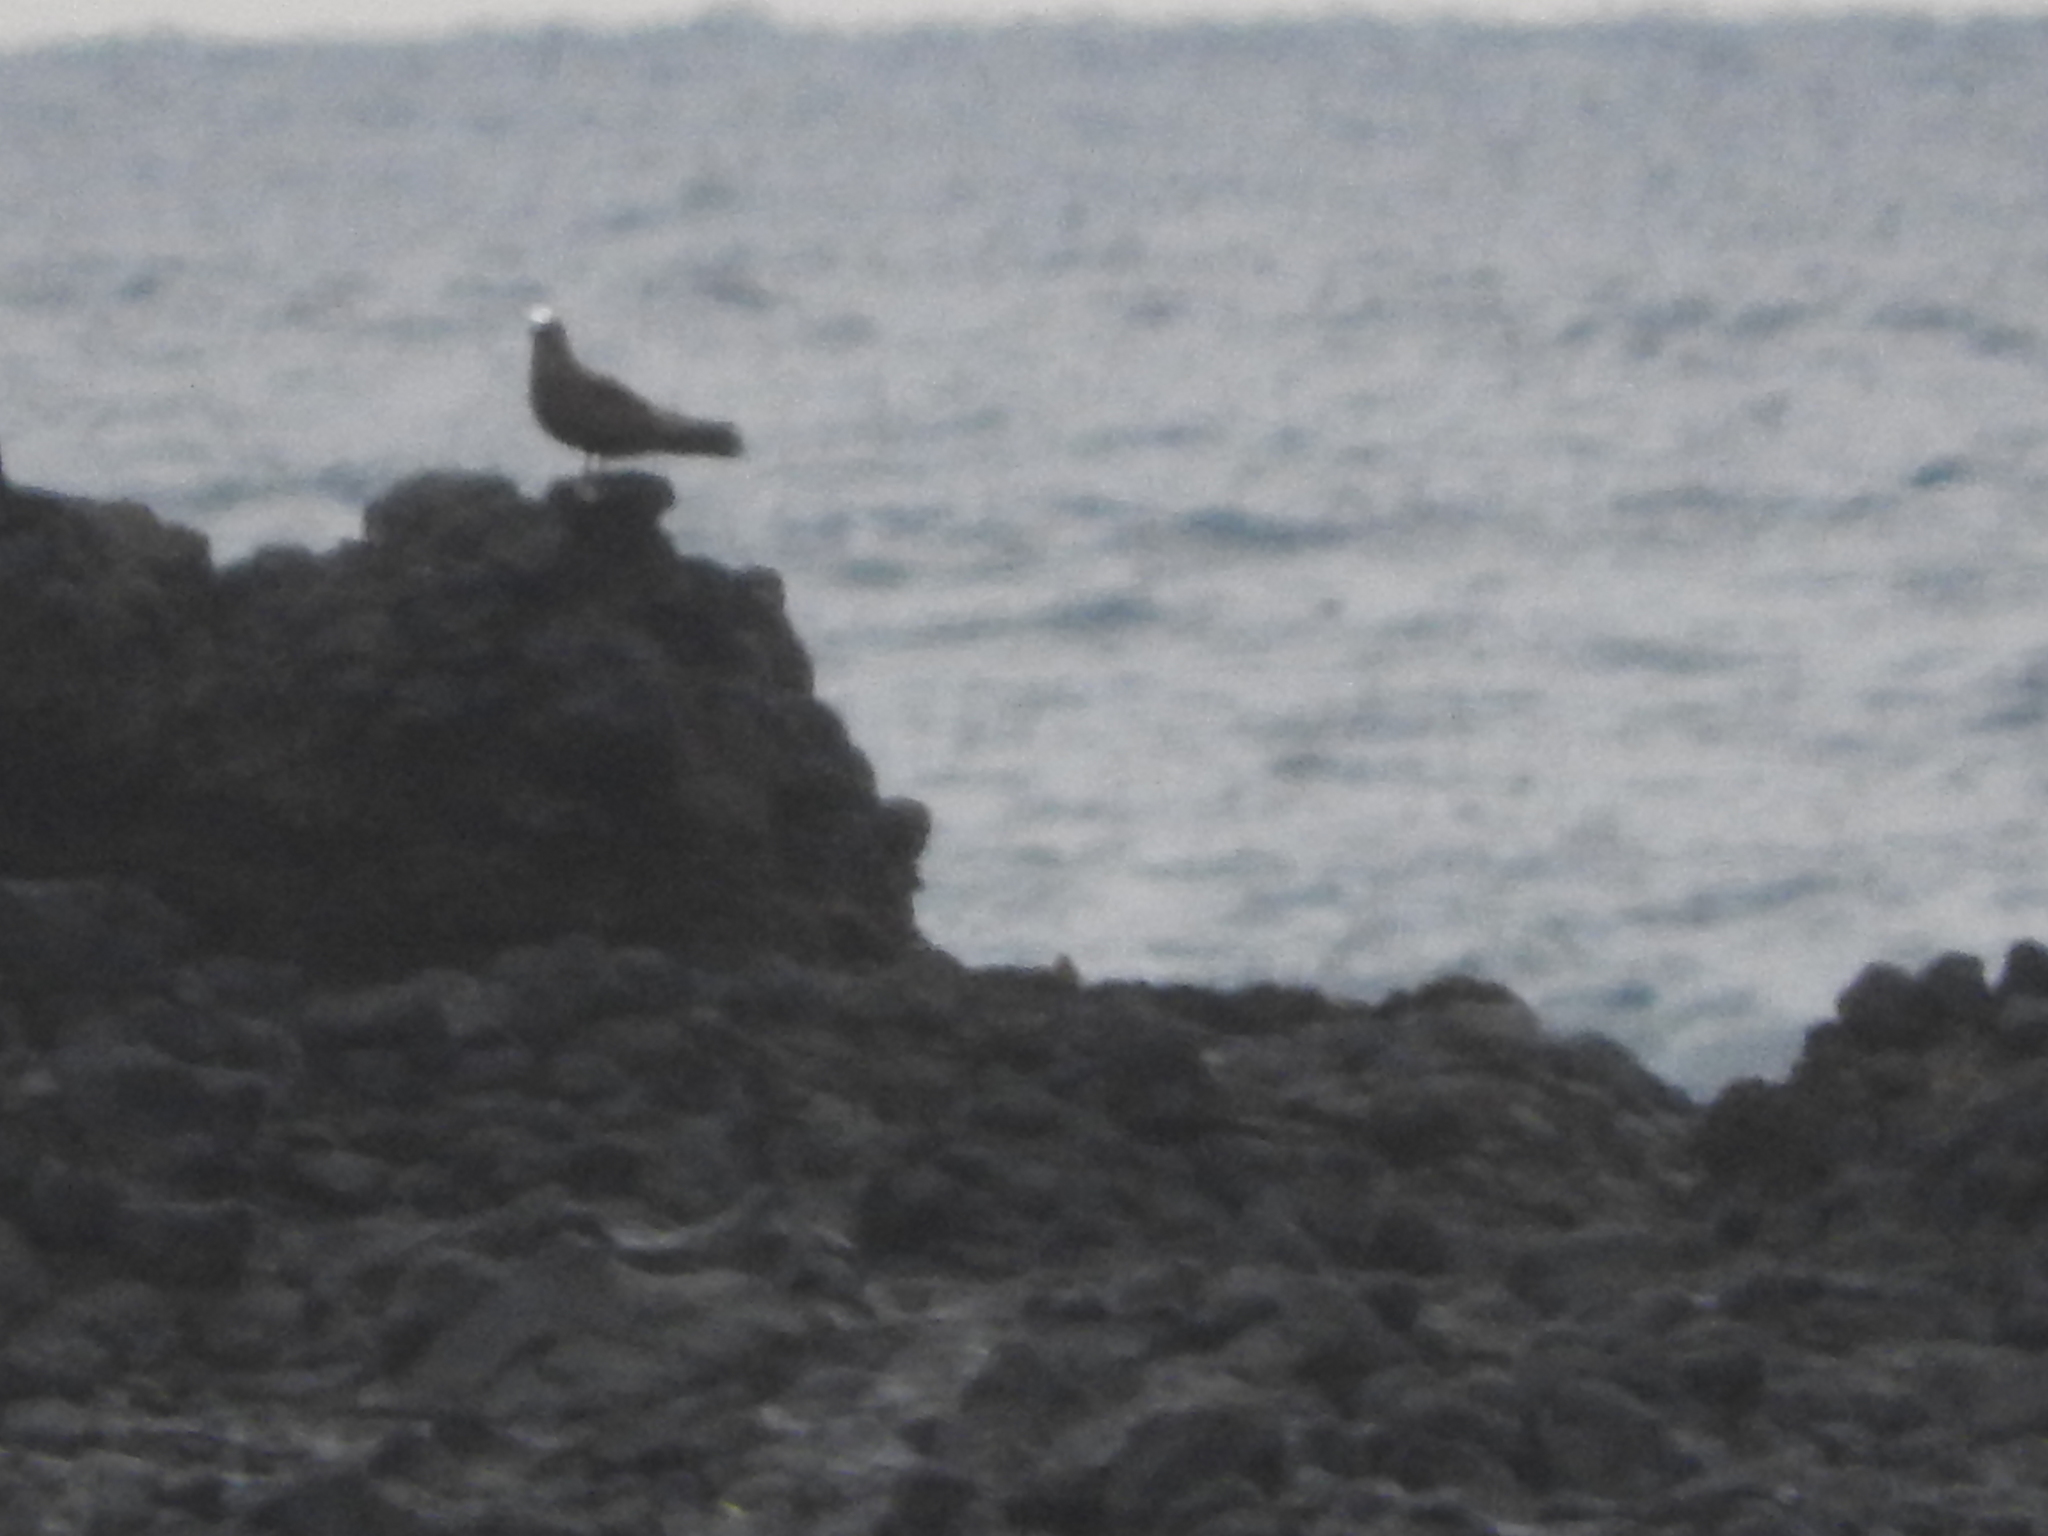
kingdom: Animalia
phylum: Chordata
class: Aves
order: Charadriiformes
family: Laridae
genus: Anous
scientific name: Anous minutus
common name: Black noddy
